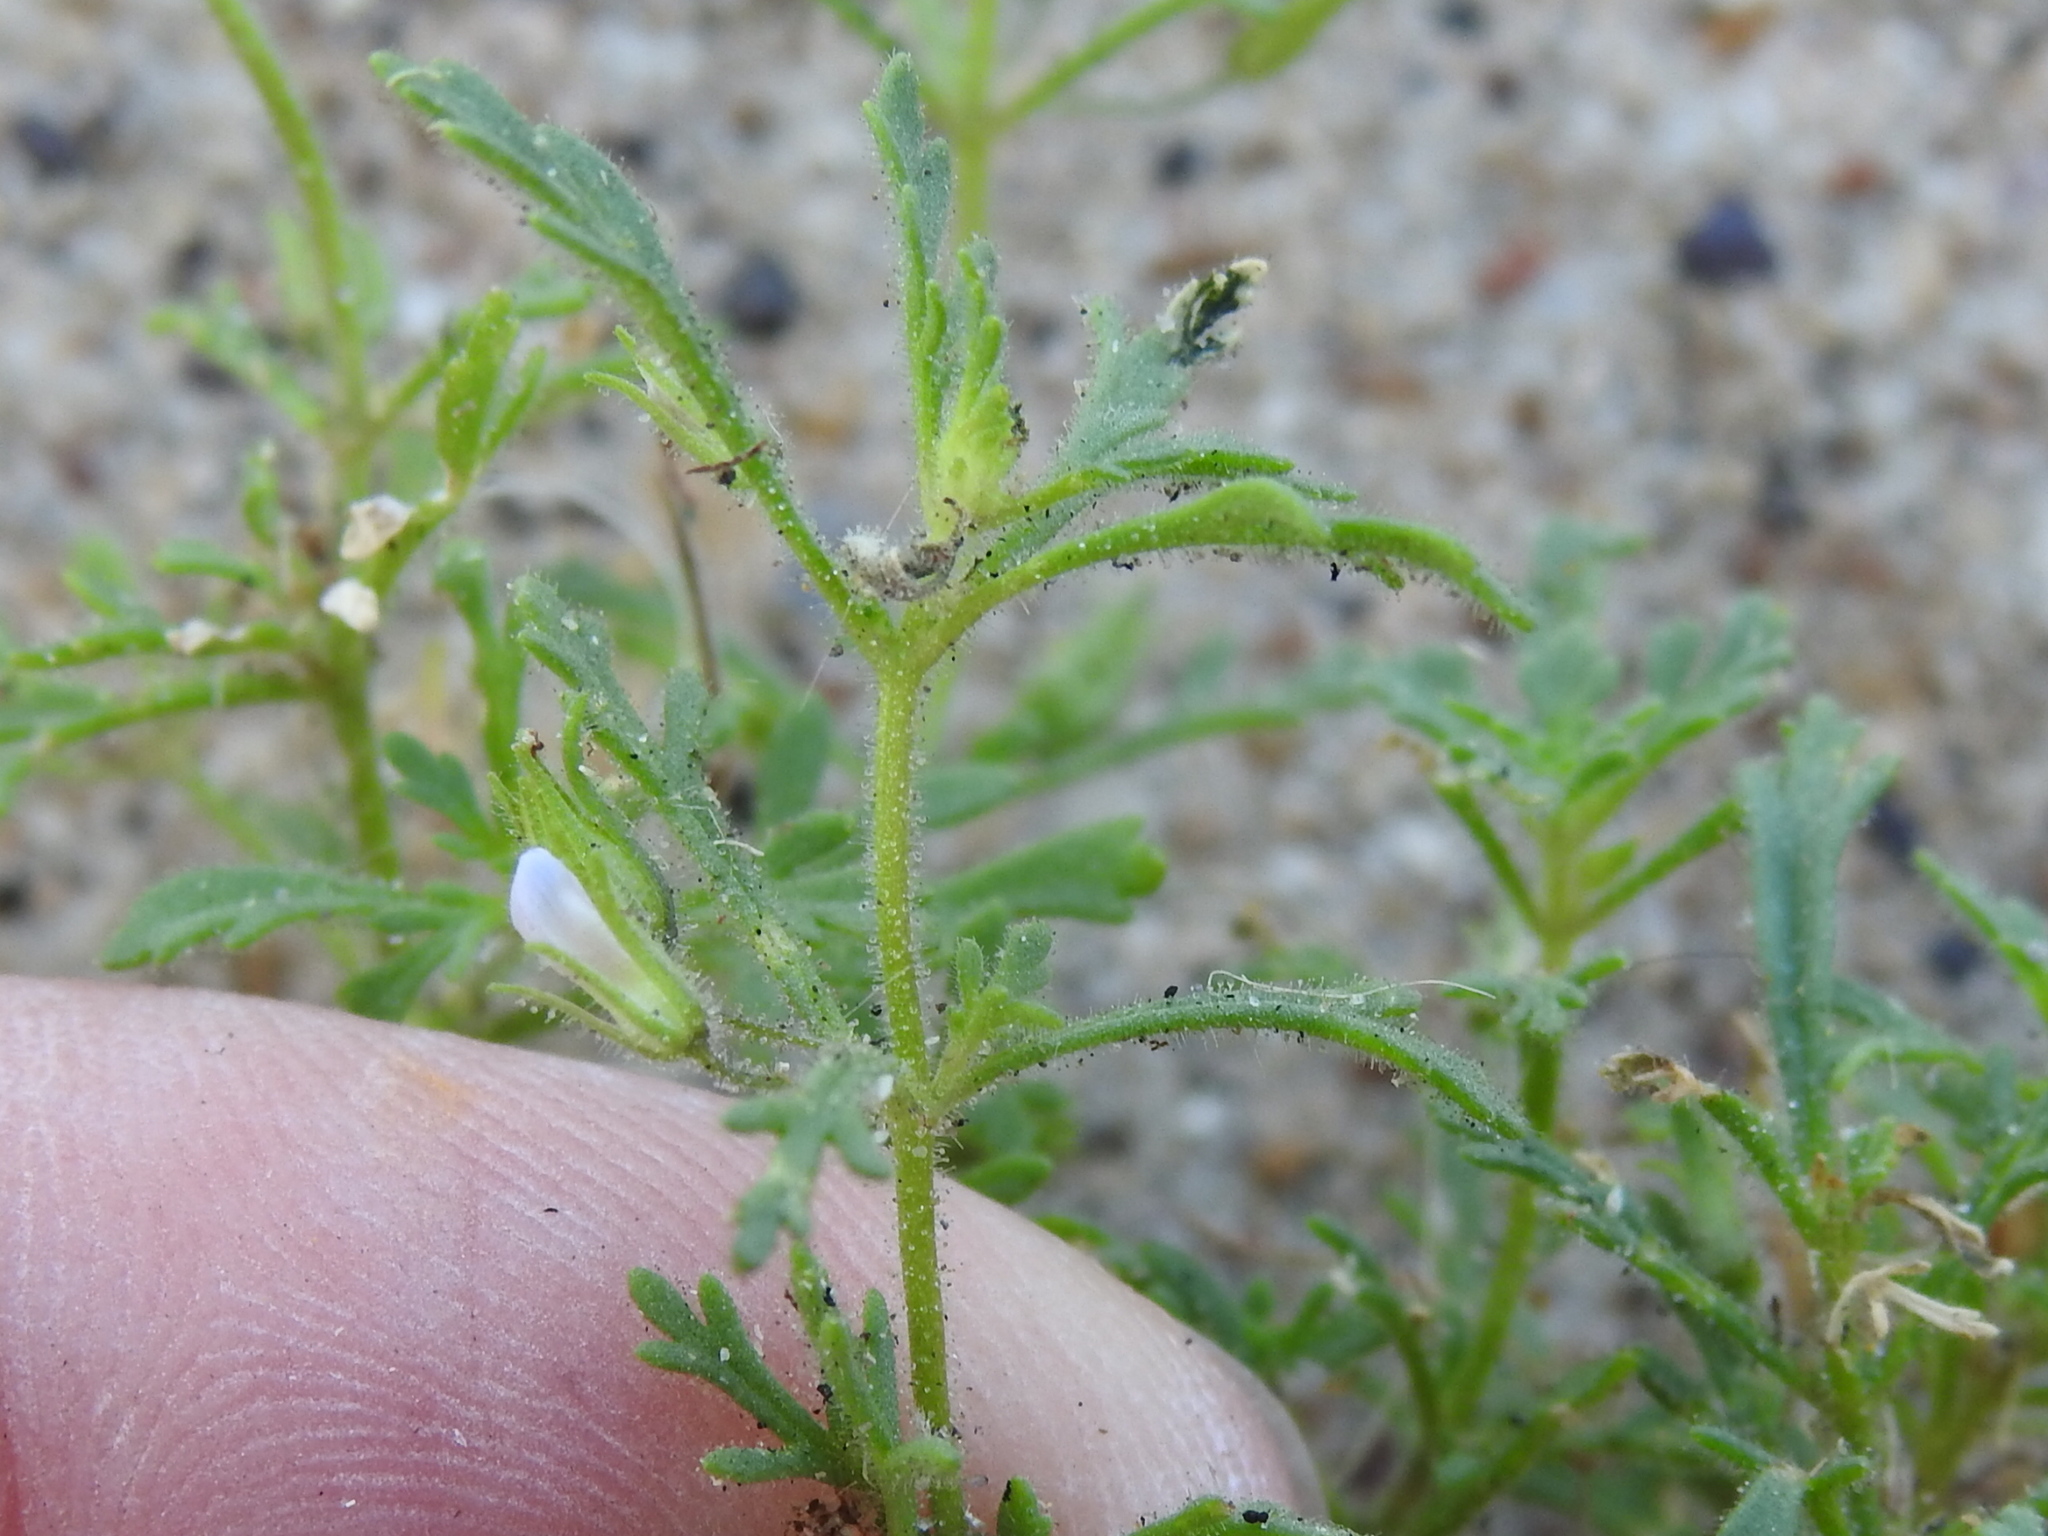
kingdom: Plantae
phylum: Tracheophyta
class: Magnoliopsida
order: Lamiales
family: Plantaginaceae
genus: Leucospora
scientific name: Leucospora multifida
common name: Narrow-leaf paleseed
